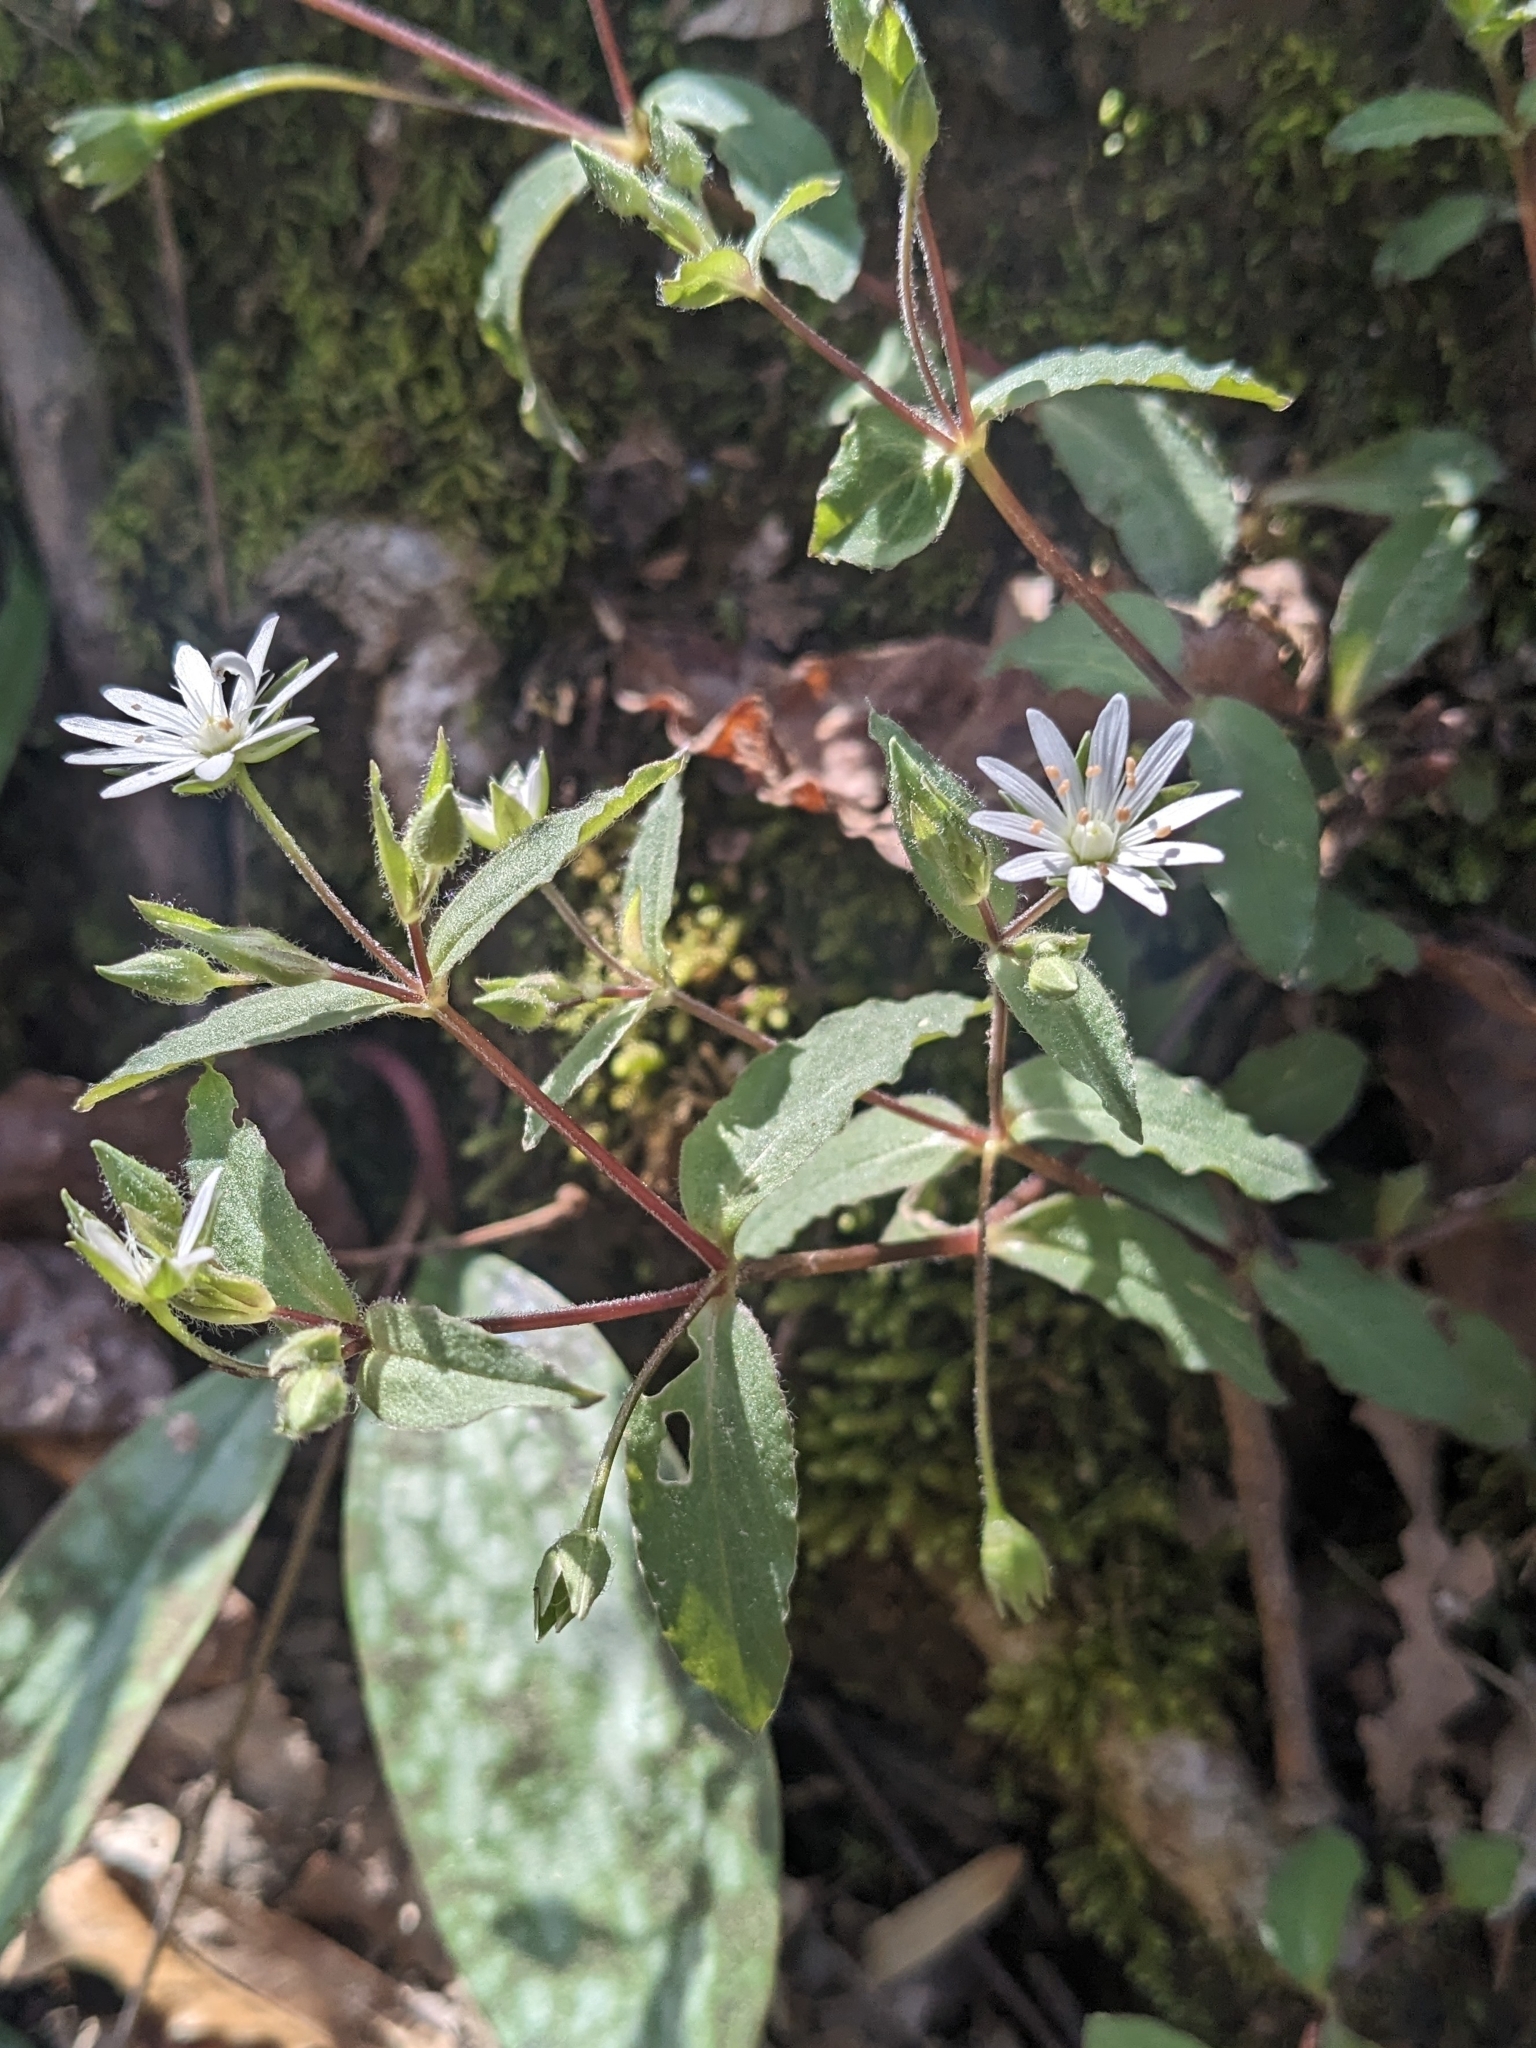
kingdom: Plantae
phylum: Tracheophyta
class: Magnoliopsida
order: Caryophyllales
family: Caryophyllaceae
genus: Stellaria
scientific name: Stellaria pubera
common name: Star chickweed
